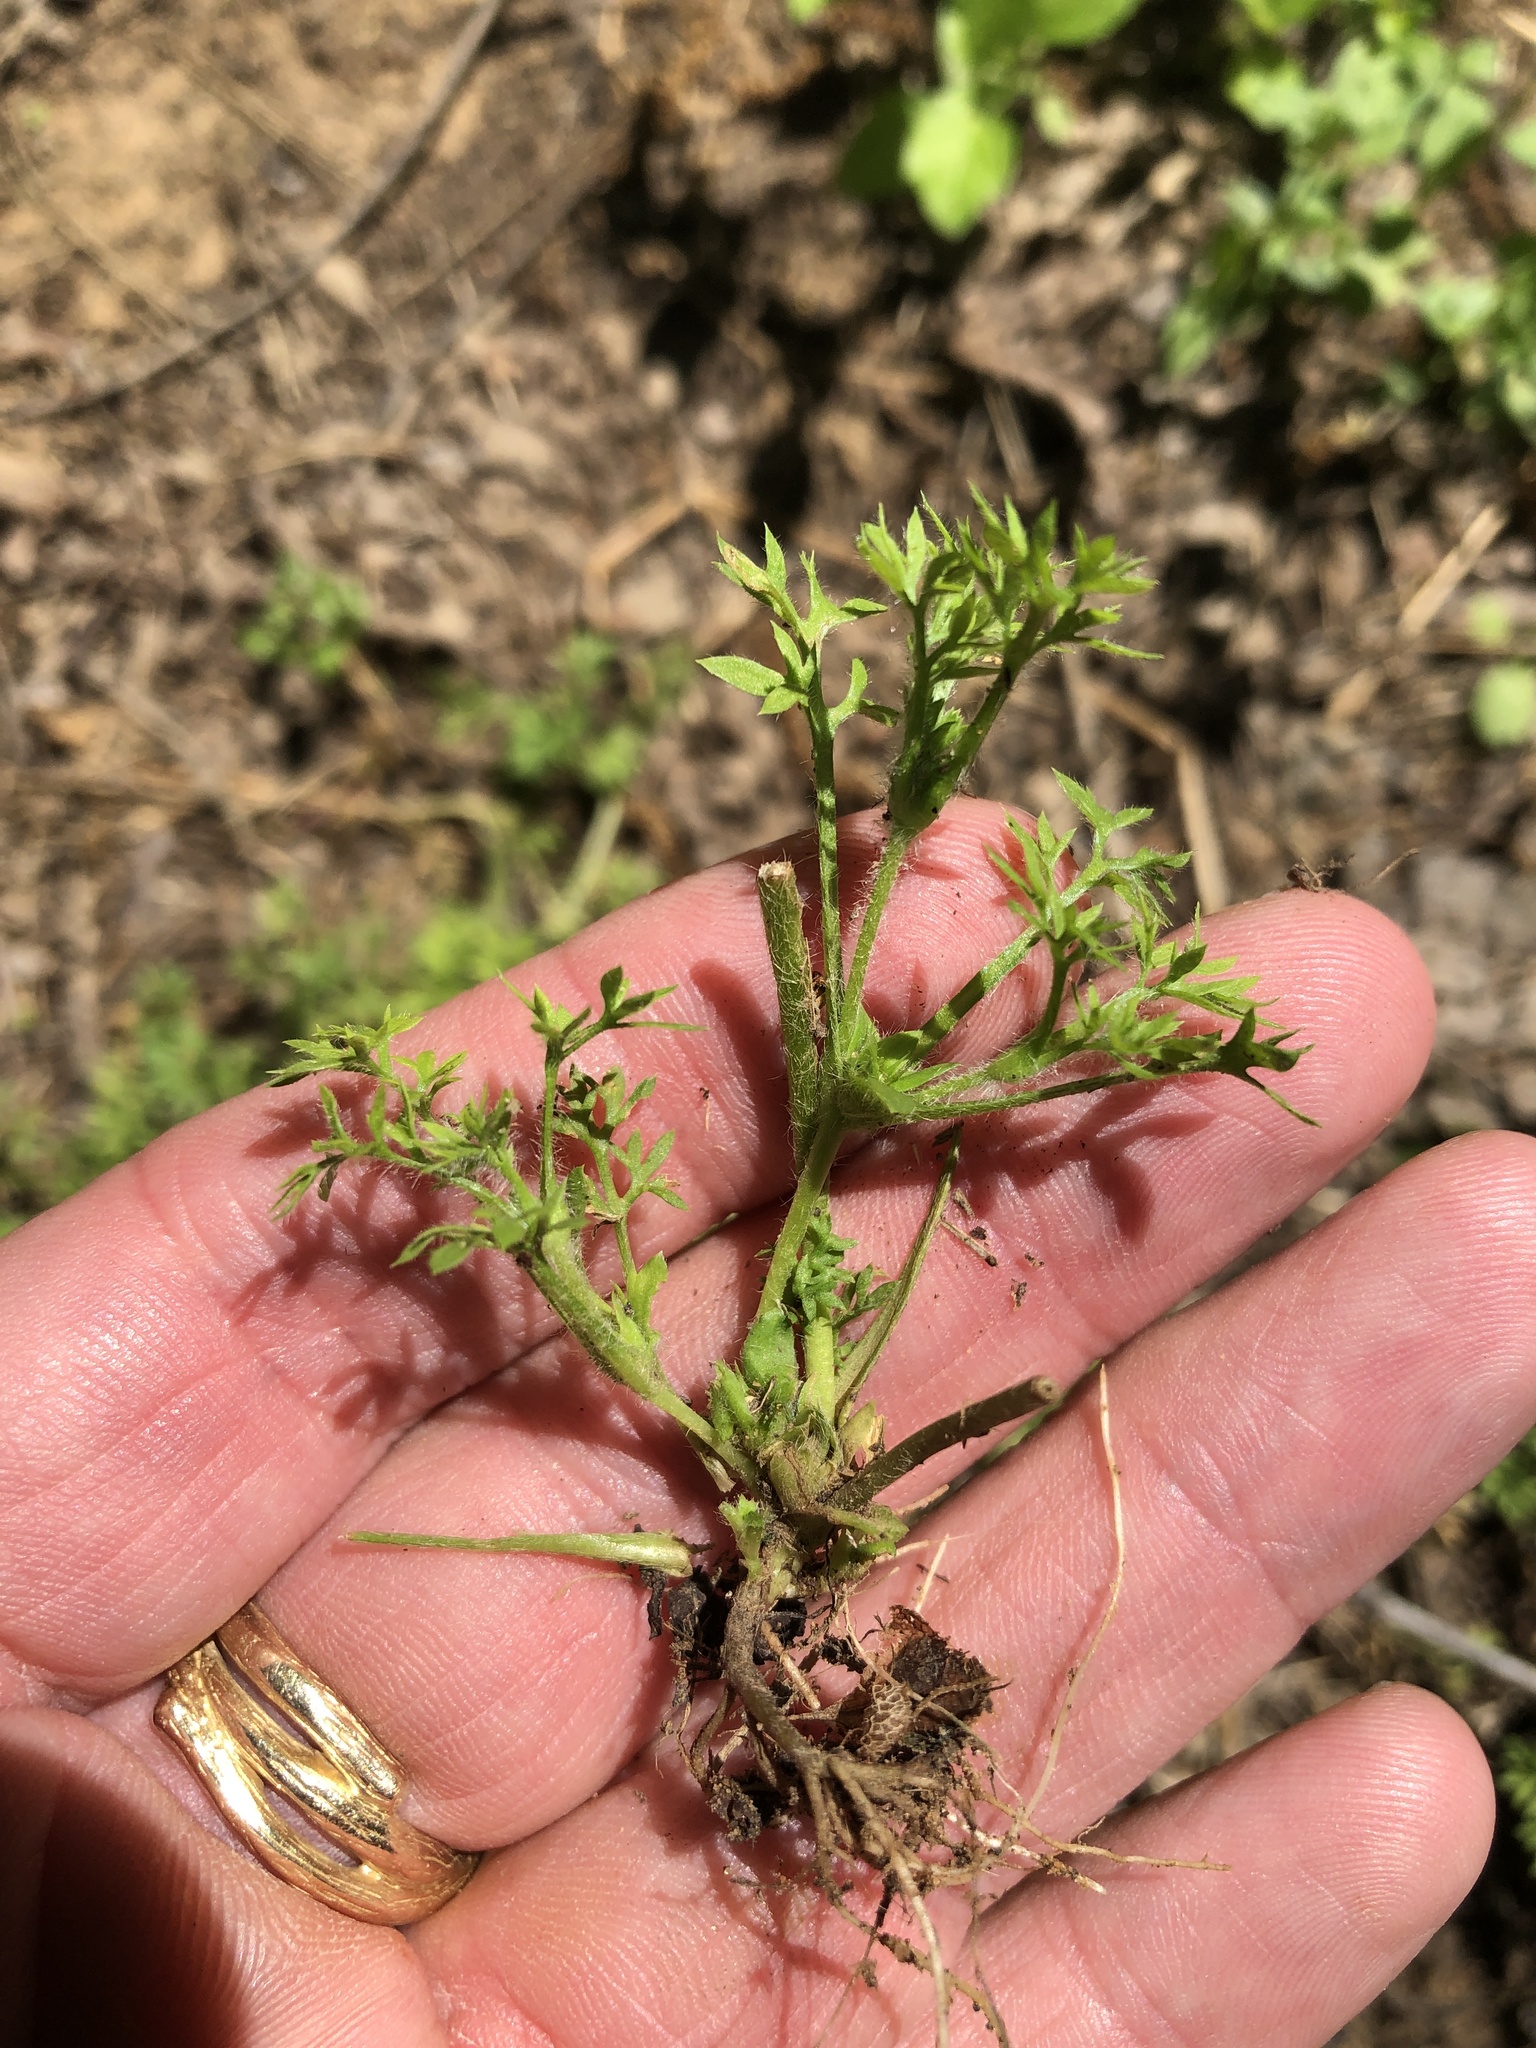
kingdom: Plantae
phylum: Tracheophyta
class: Magnoliopsida
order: Asterales
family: Asteraceae
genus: Soliva
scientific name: Soliva sessilis
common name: Field burrweed
